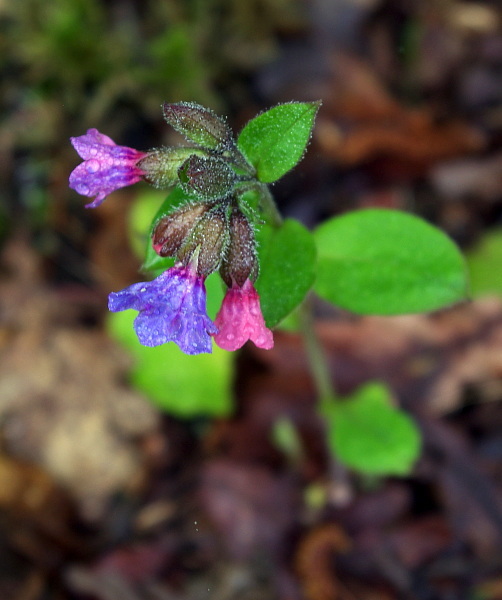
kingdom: Plantae
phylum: Tracheophyta
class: Magnoliopsida
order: Boraginales
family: Boraginaceae
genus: Pulmonaria
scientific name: Pulmonaria obscura
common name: Suffolk lungwort
